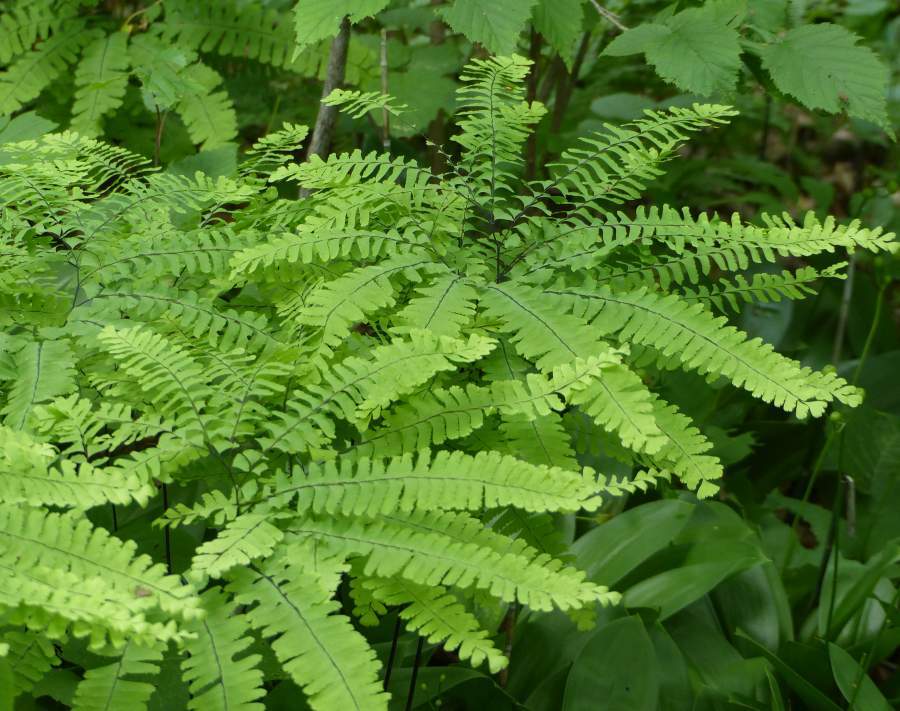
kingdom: Plantae
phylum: Tracheophyta
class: Polypodiopsida
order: Polypodiales
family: Pteridaceae
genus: Adiantum
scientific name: Adiantum pedatum
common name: Five-finger fern
